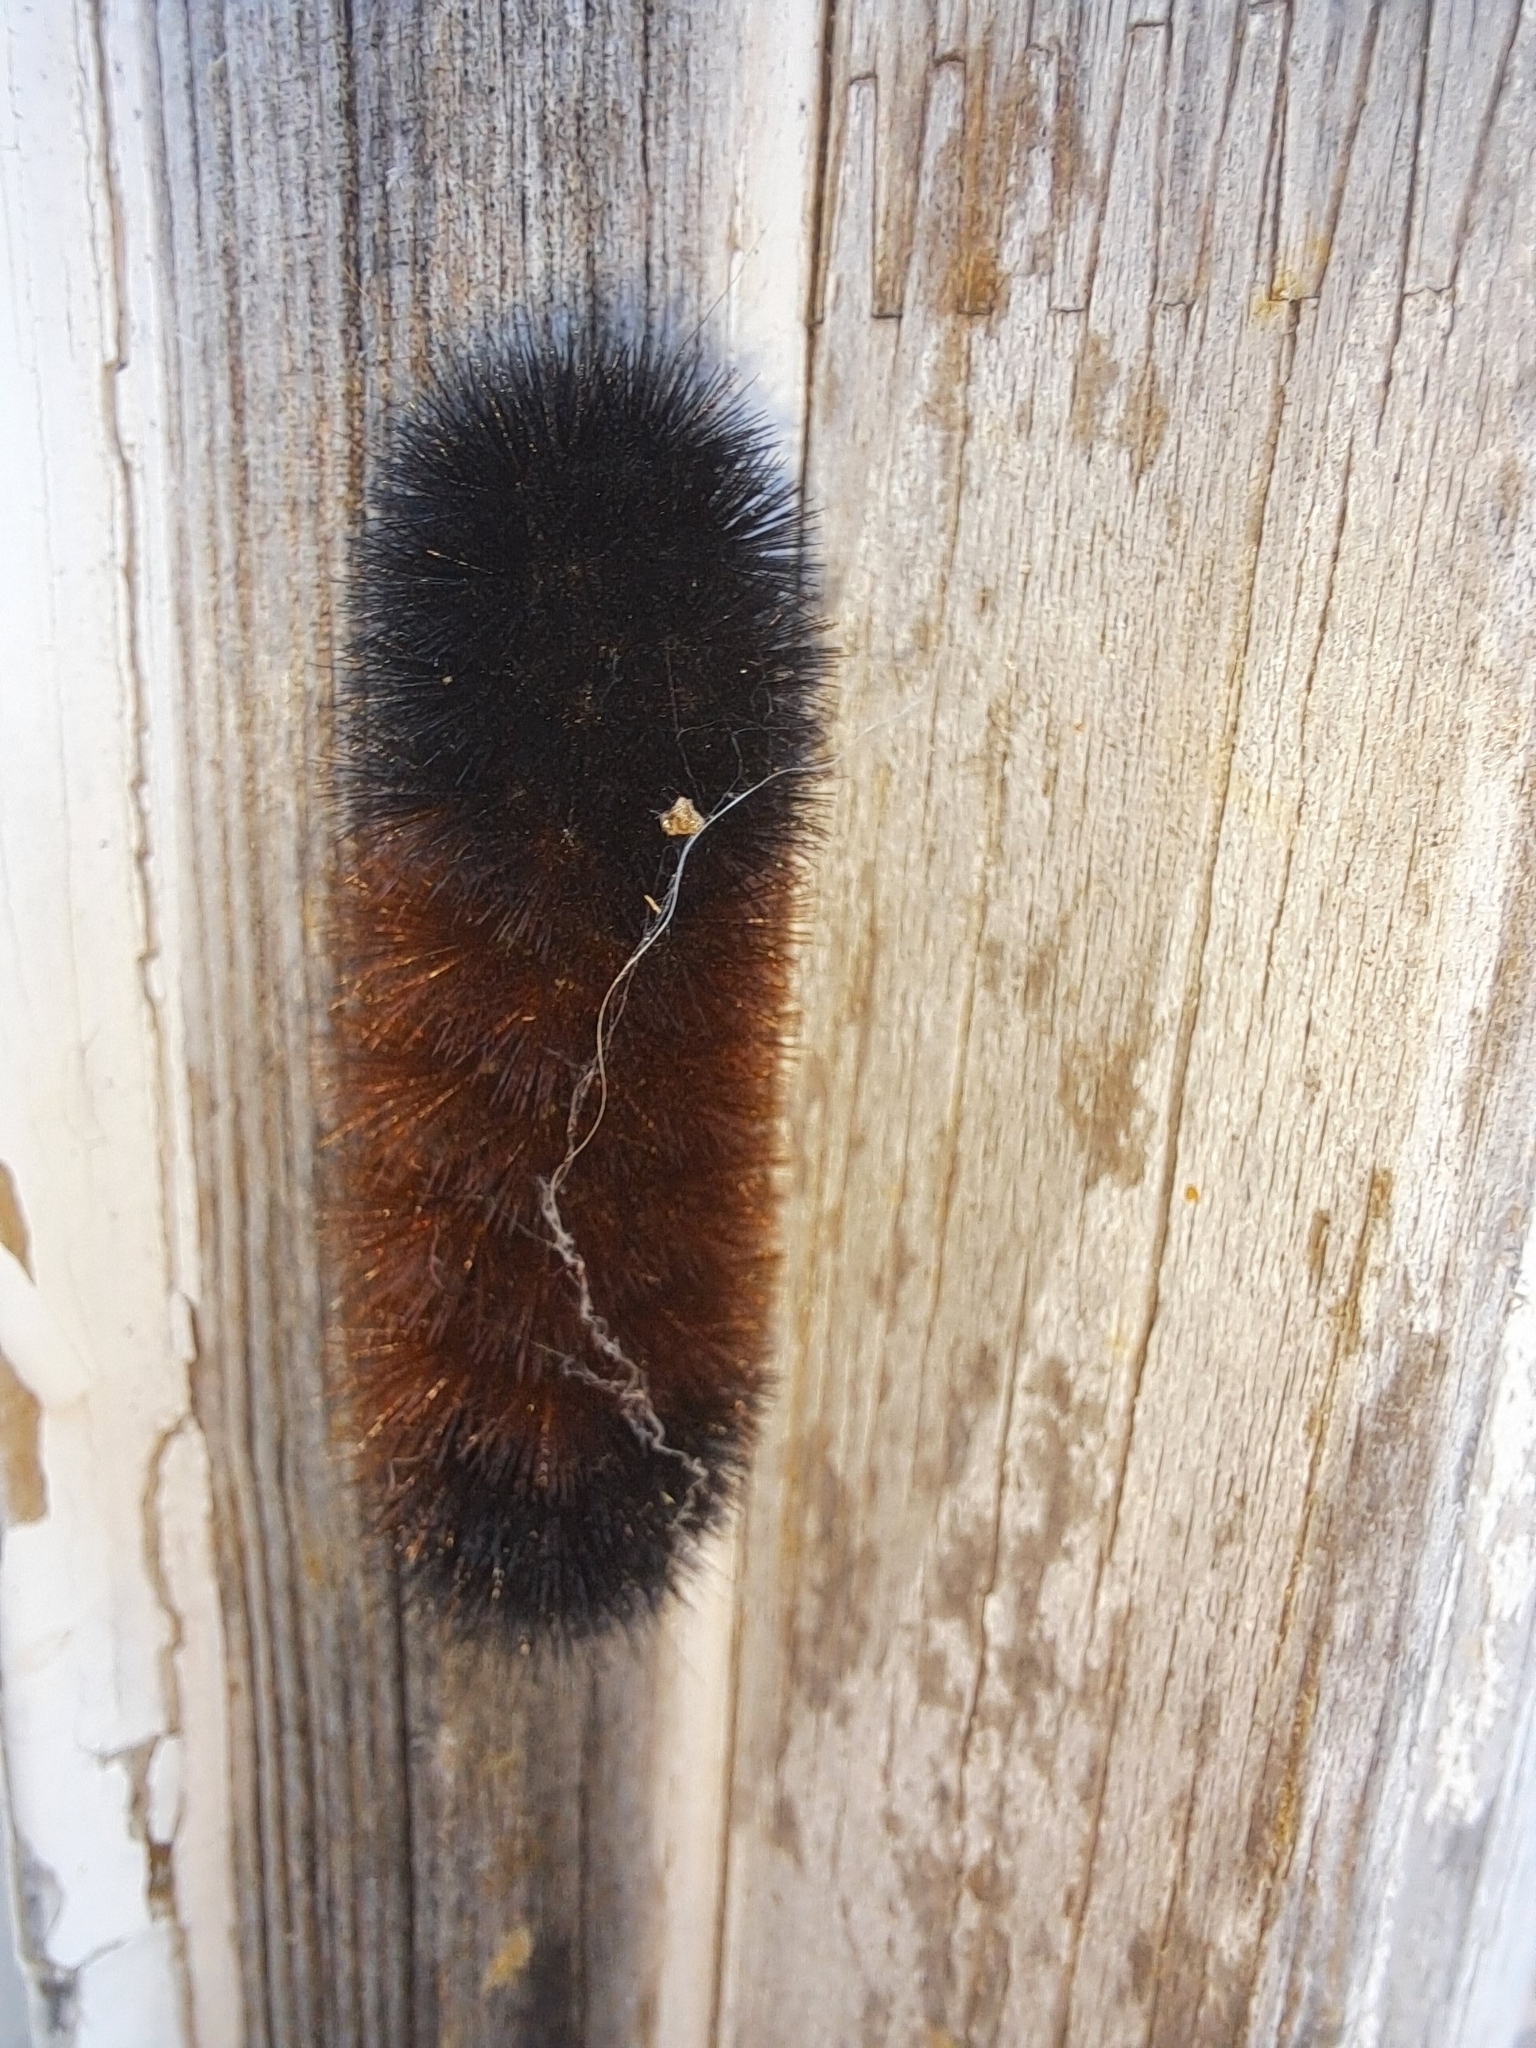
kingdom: Animalia
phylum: Arthropoda
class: Insecta
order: Lepidoptera
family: Erebidae
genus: Pyrrharctia
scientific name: Pyrrharctia isabella
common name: Isabella tiger moth
